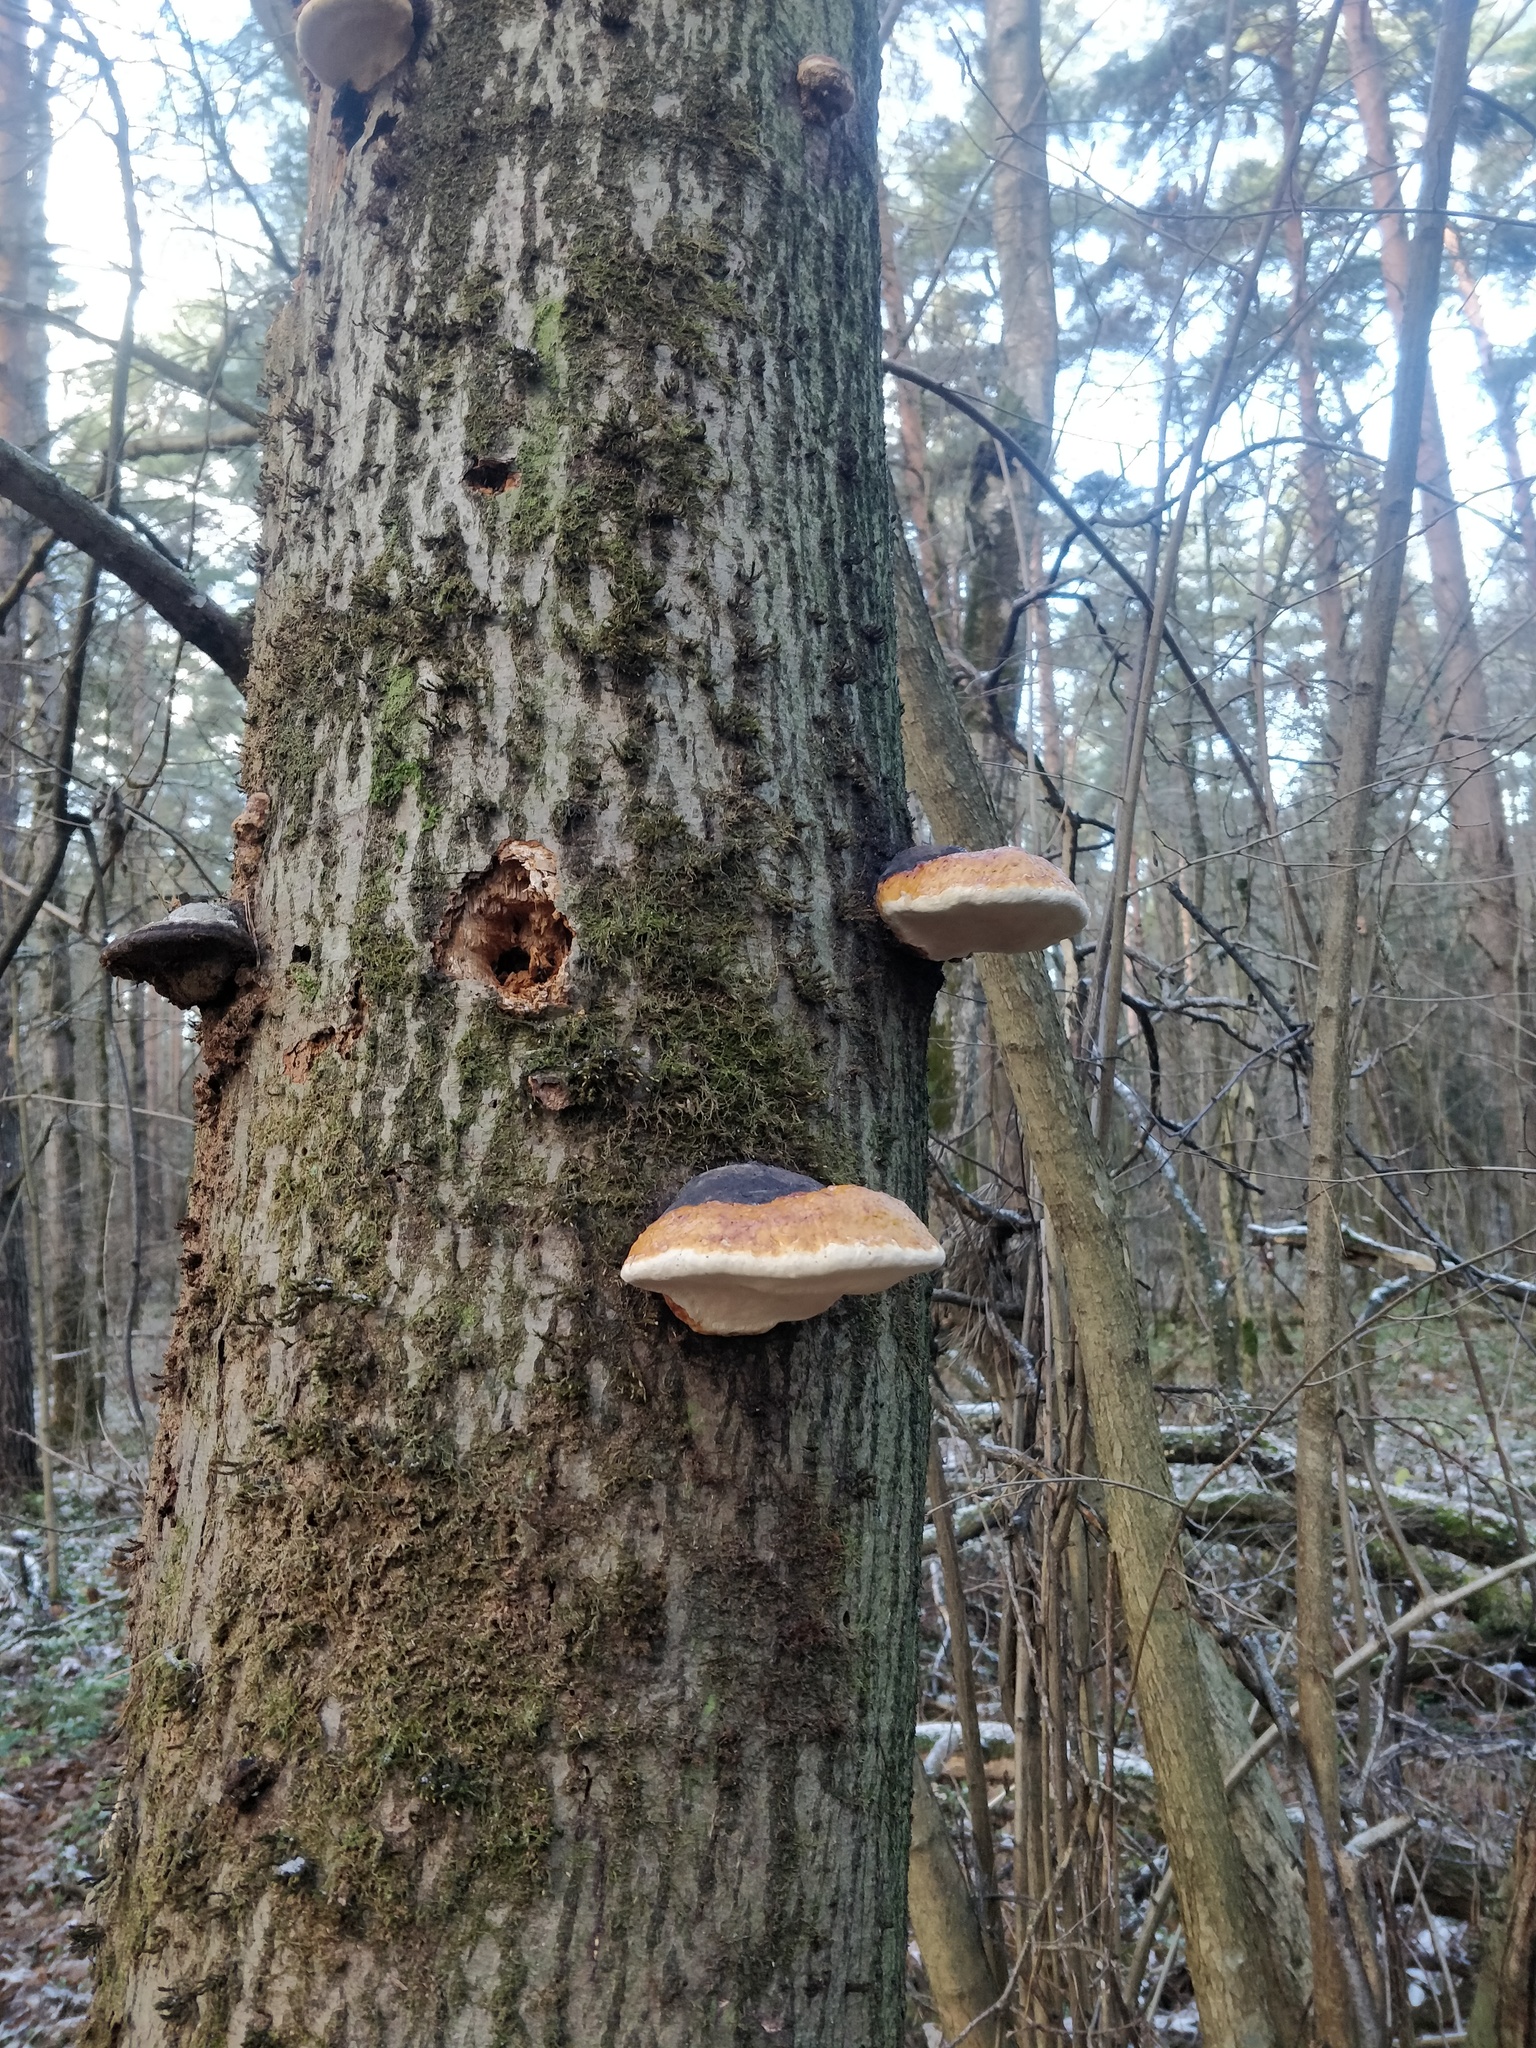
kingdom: Fungi
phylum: Basidiomycota
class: Agaricomycetes
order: Polyporales
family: Fomitopsidaceae
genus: Fomitopsis
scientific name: Fomitopsis pinicola
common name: Red-belted bracket
